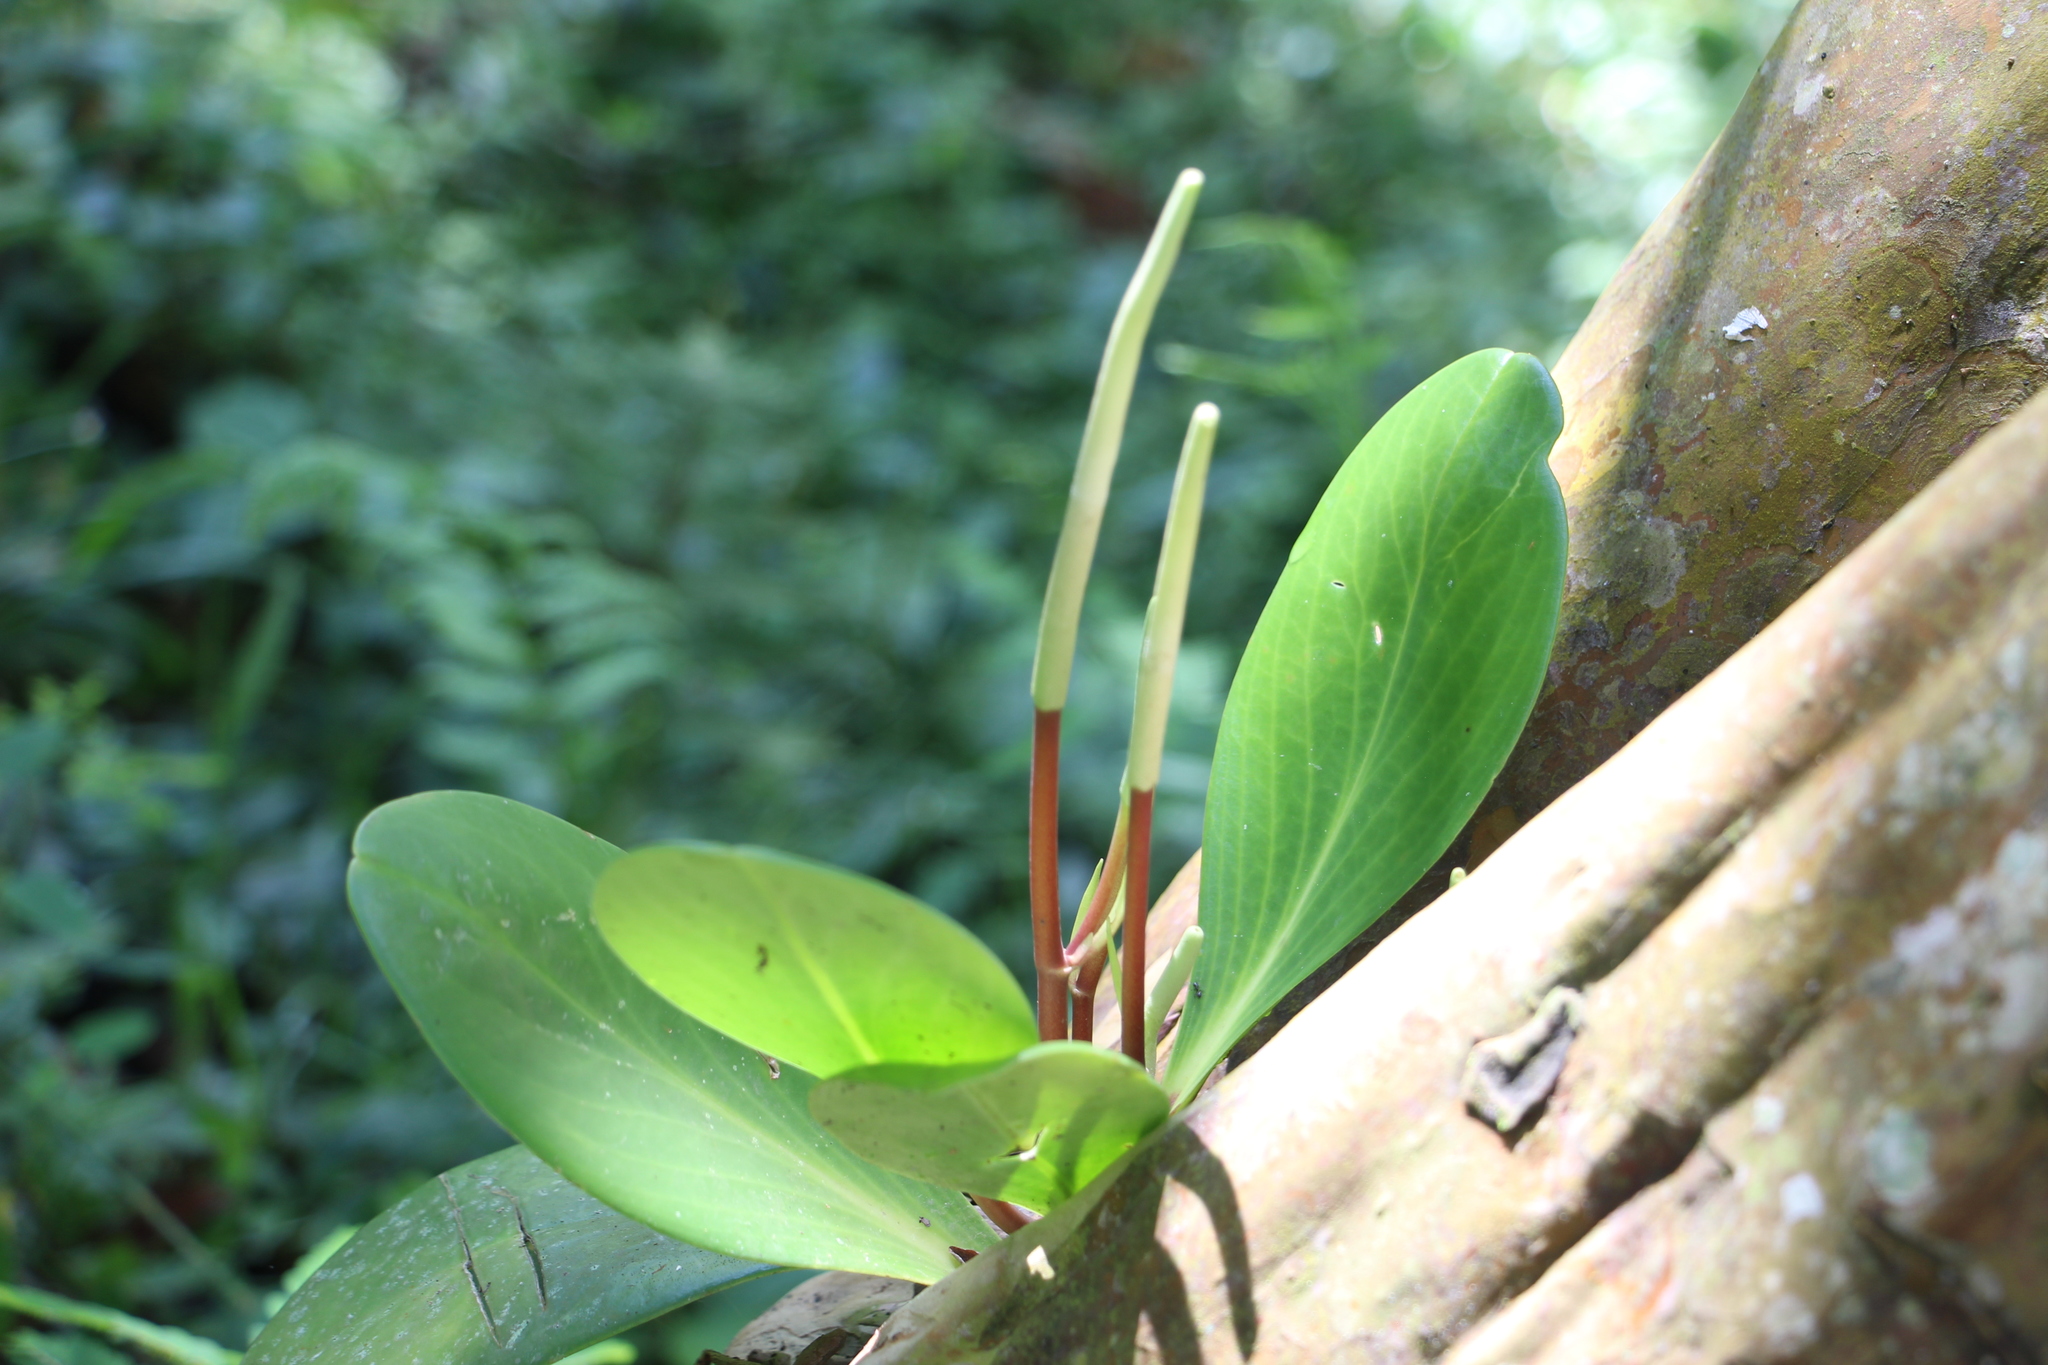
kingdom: Plantae
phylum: Tracheophyta
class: Magnoliopsida
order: Piperales
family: Piperaceae
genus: Peperomia
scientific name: Peperomia obtusifolia
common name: Baby rubberplant
